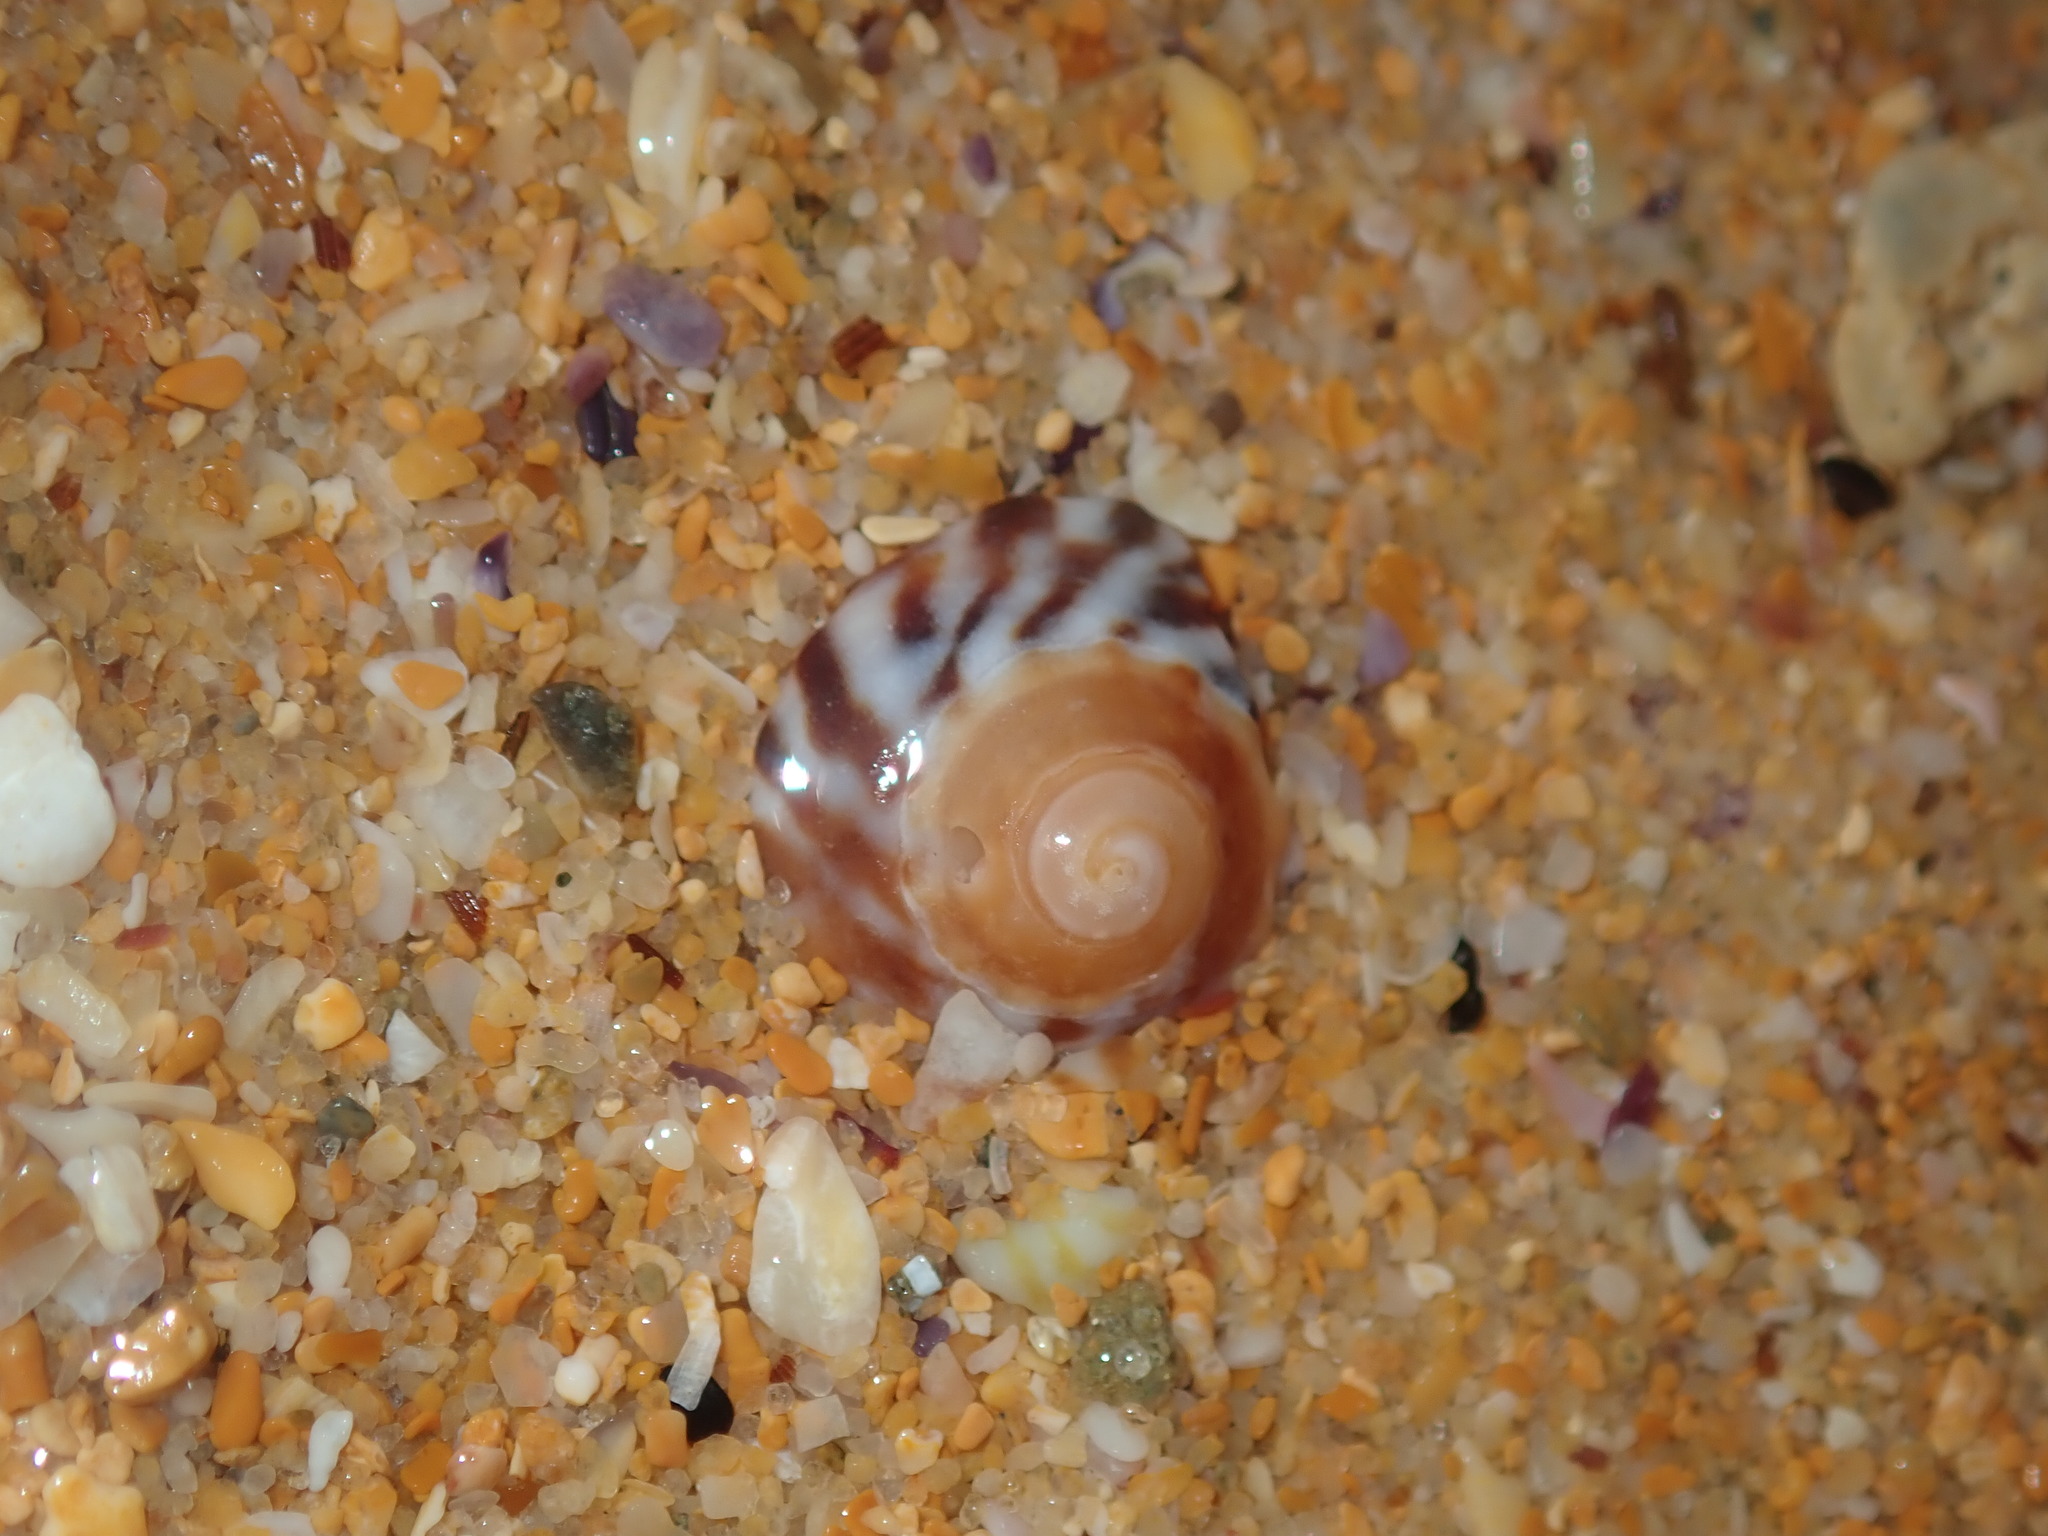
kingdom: Animalia
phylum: Mollusca
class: Gastropoda
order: Littorinimorpha
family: Littorinidae
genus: Bembicium
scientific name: Bembicium nanum
